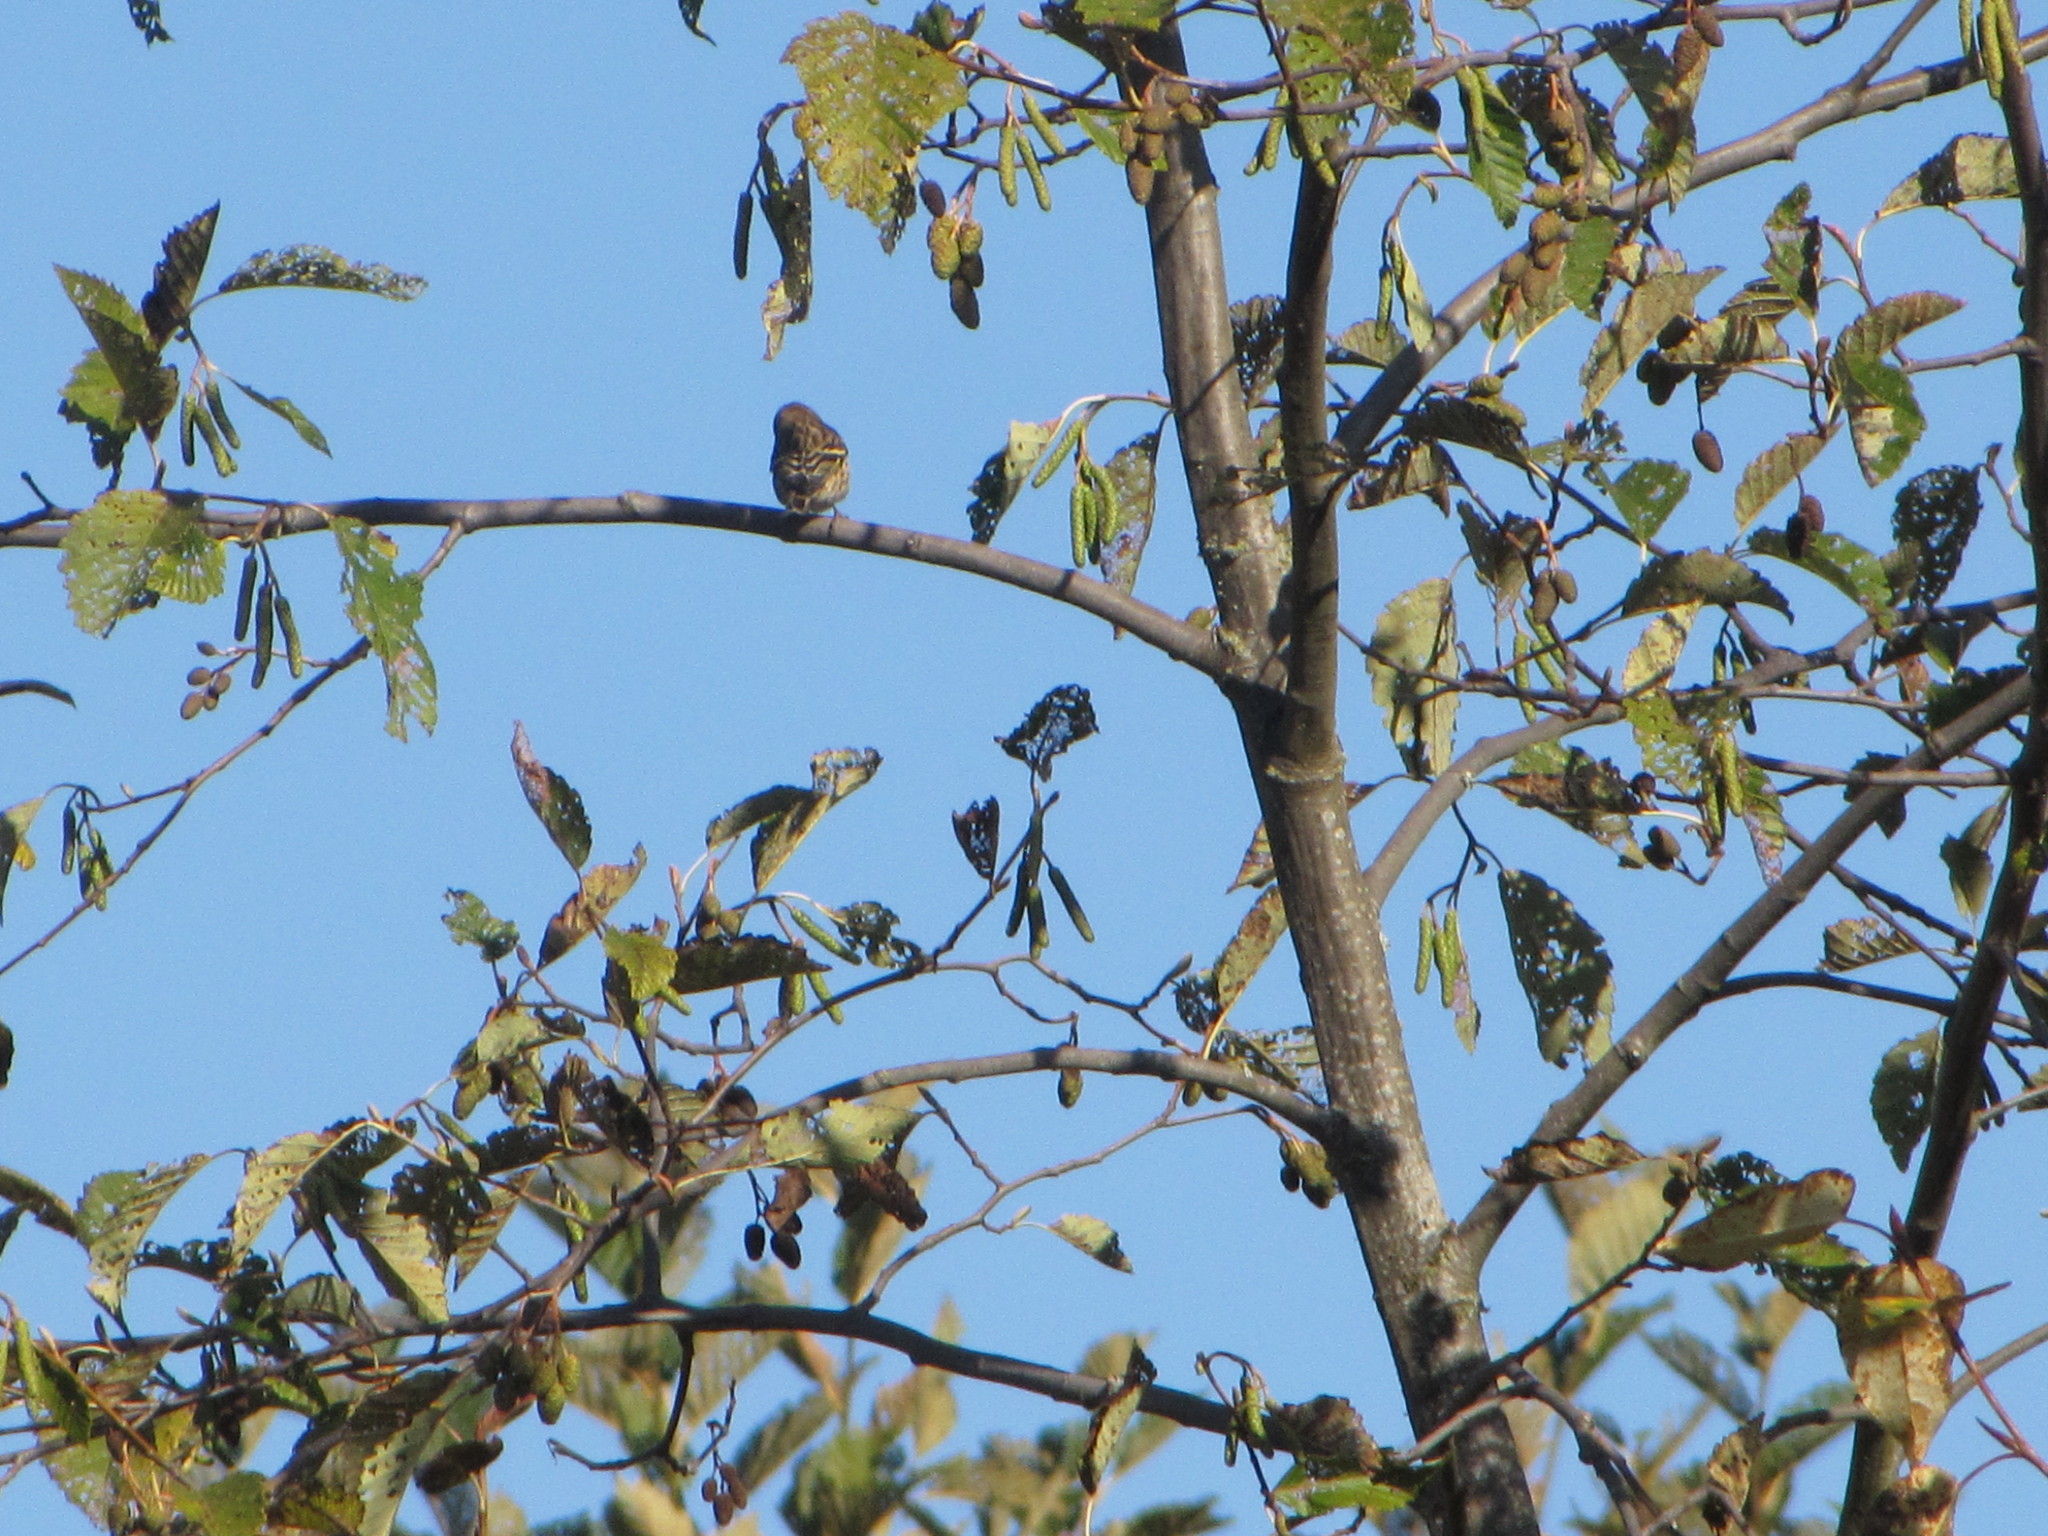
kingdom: Animalia
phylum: Chordata
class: Aves
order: Passeriformes
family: Fringillidae
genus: Spinus
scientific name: Spinus pinus
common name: Pine siskin
